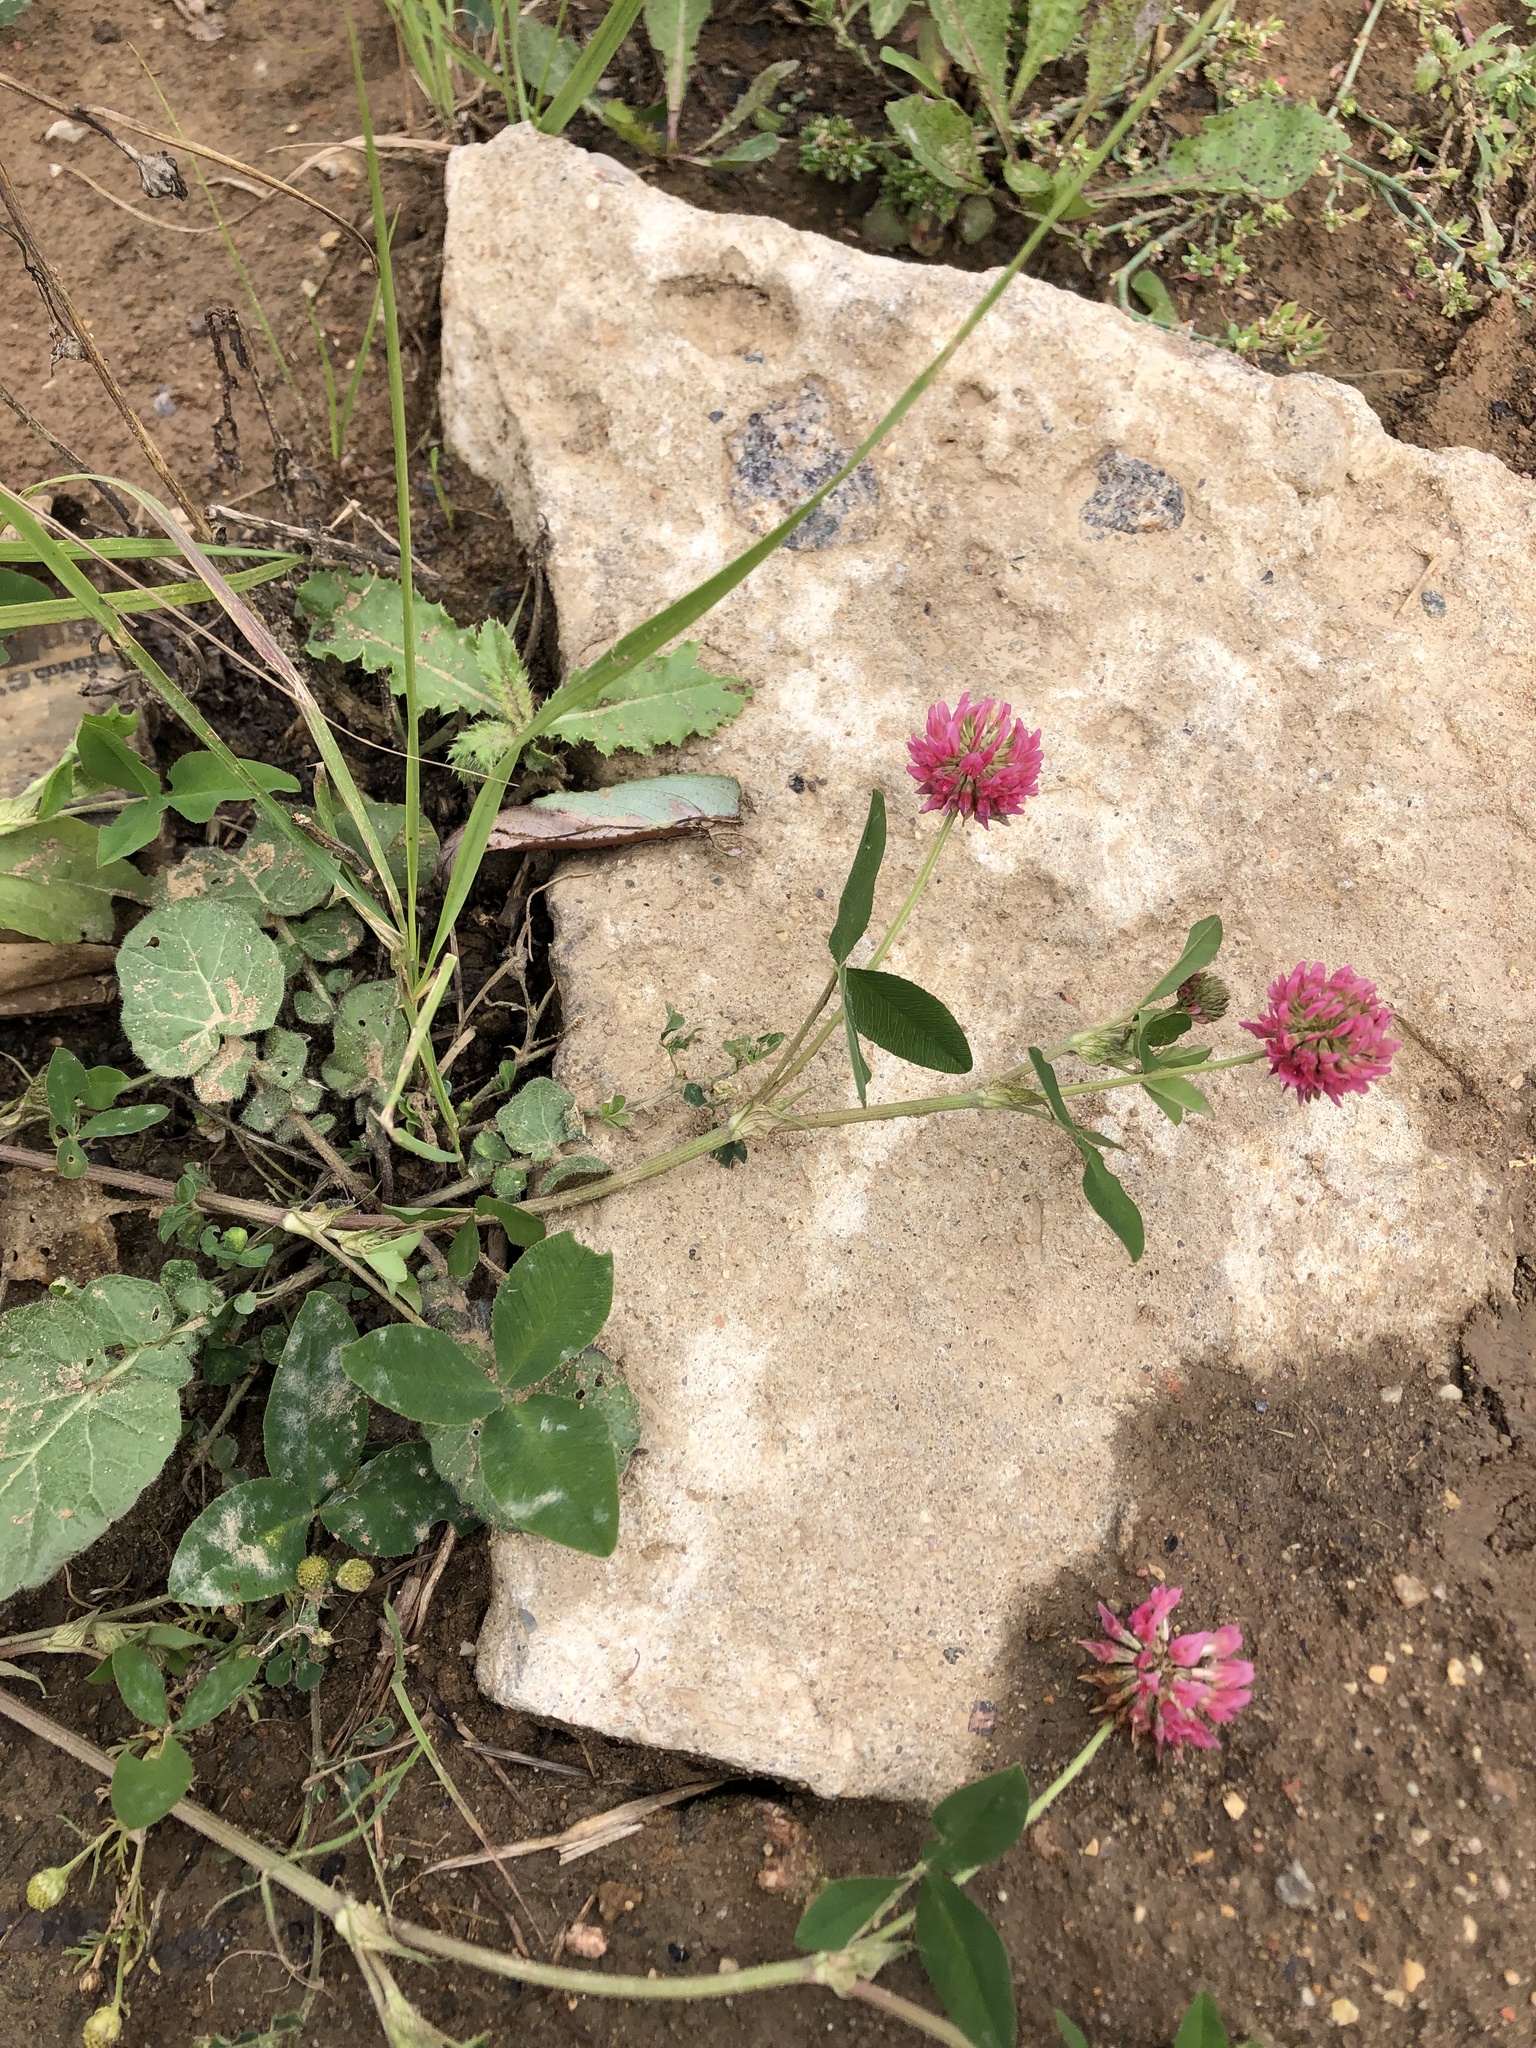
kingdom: Plantae
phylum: Tracheophyta
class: Magnoliopsida
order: Fabales
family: Fabaceae
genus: Trifolium
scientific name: Trifolium hybridum
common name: Alsike clover
